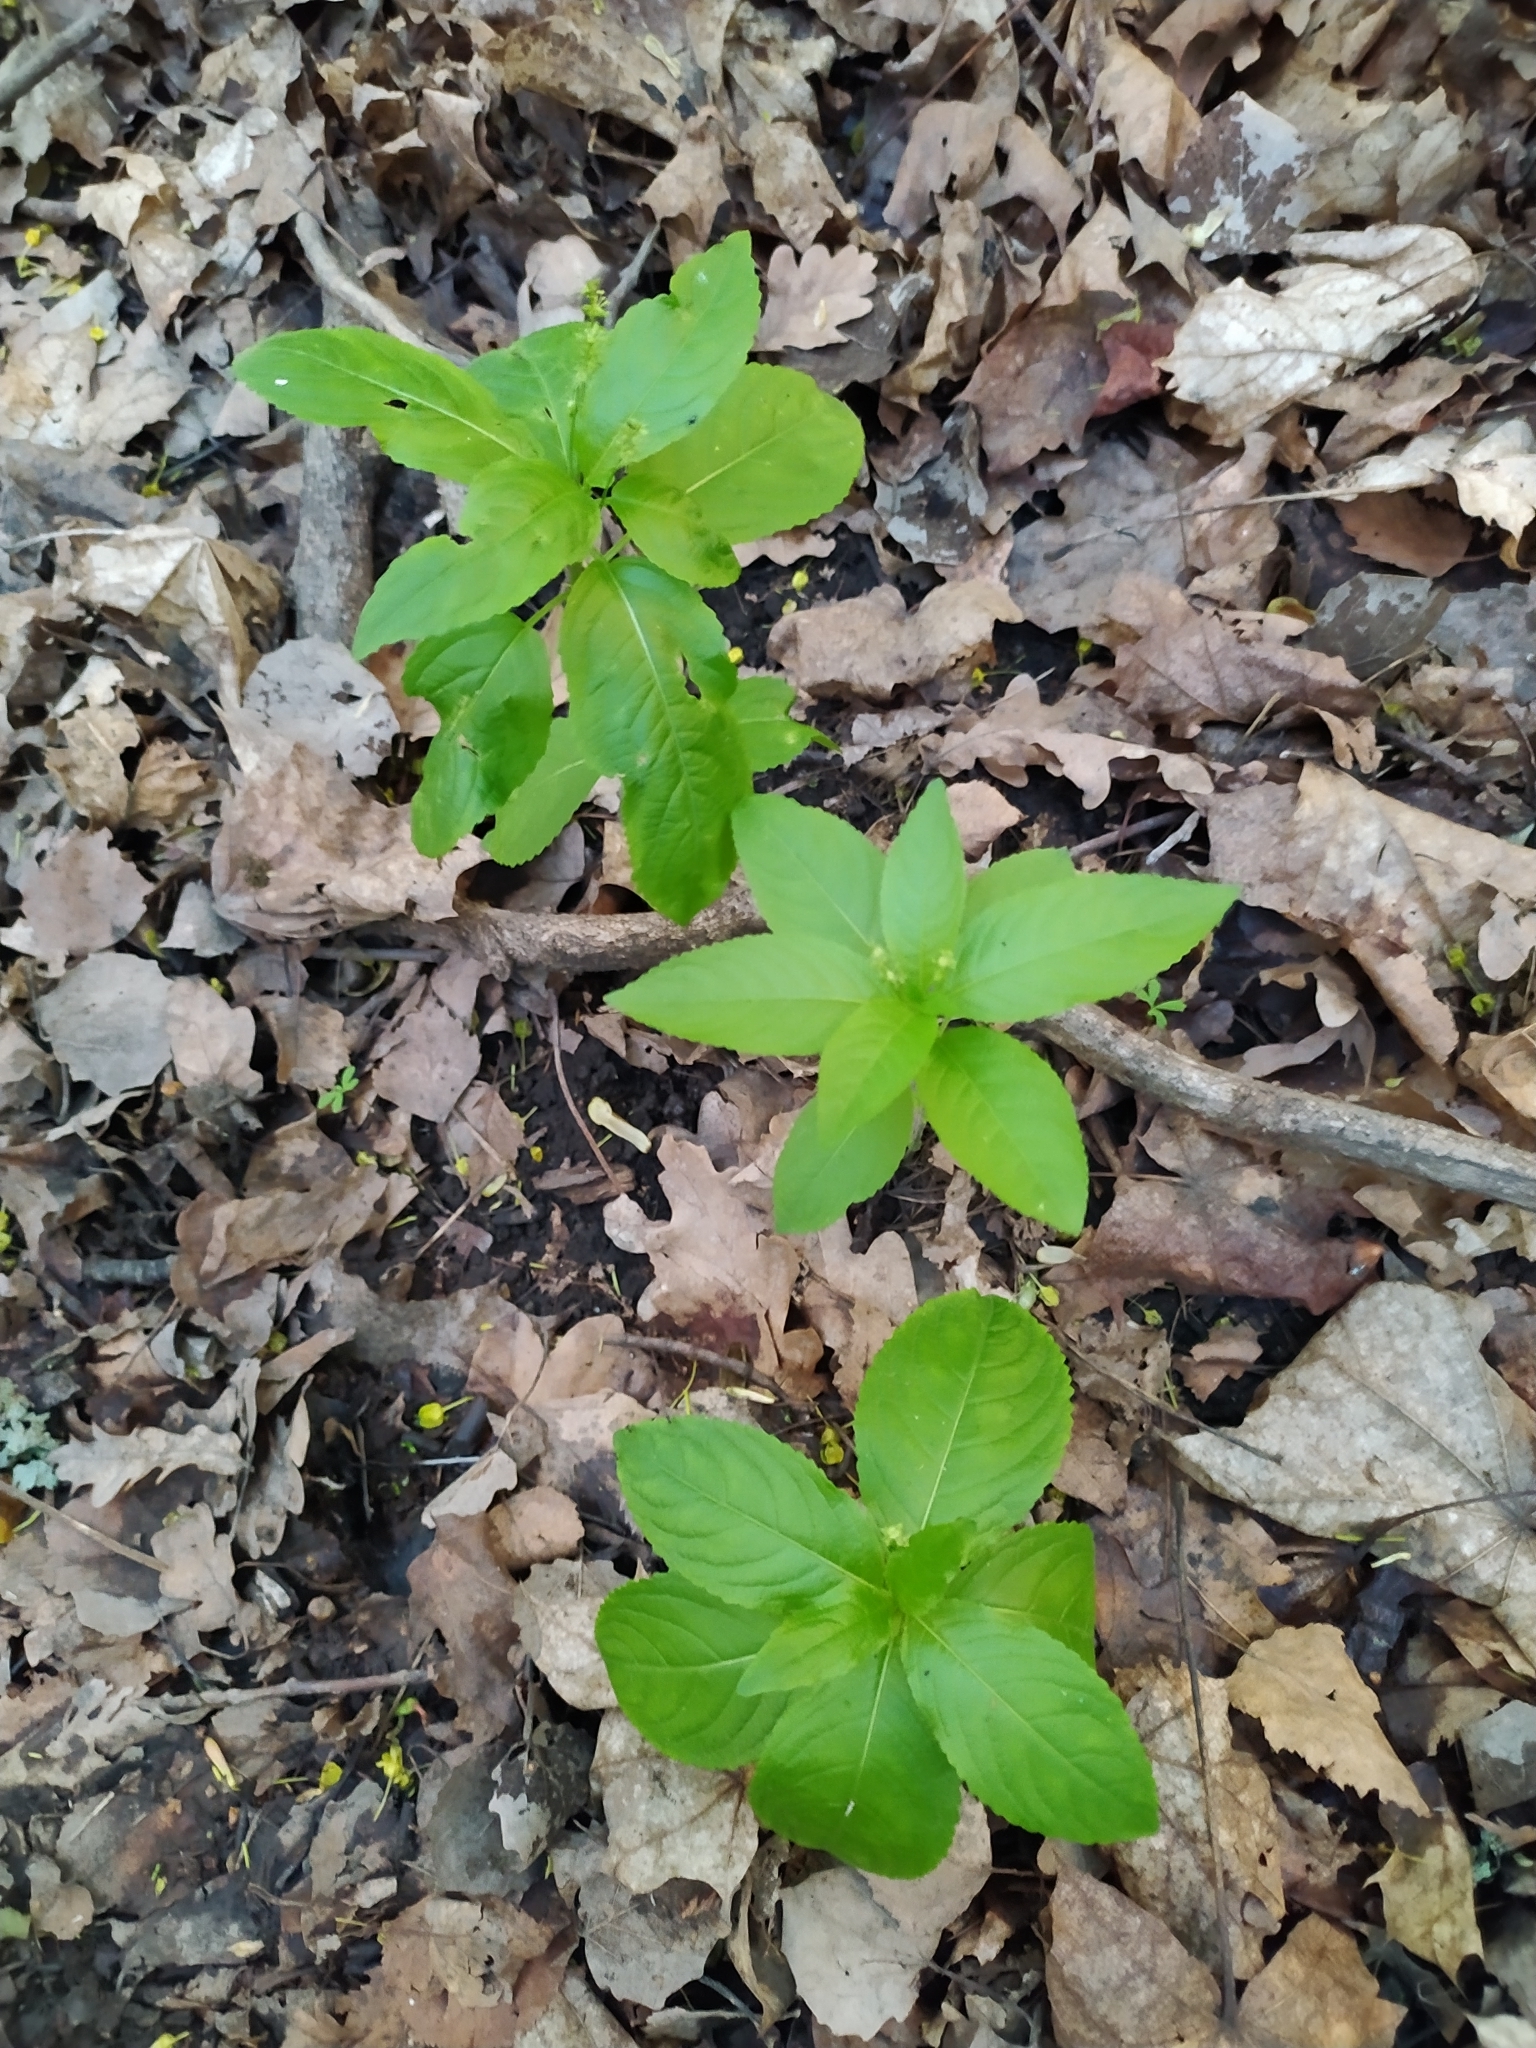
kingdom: Plantae
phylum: Tracheophyta
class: Magnoliopsida
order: Malpighiales
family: Euphorbiaceae
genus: Mercurialis
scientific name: Mercurialis perennis
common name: Dog mercury
